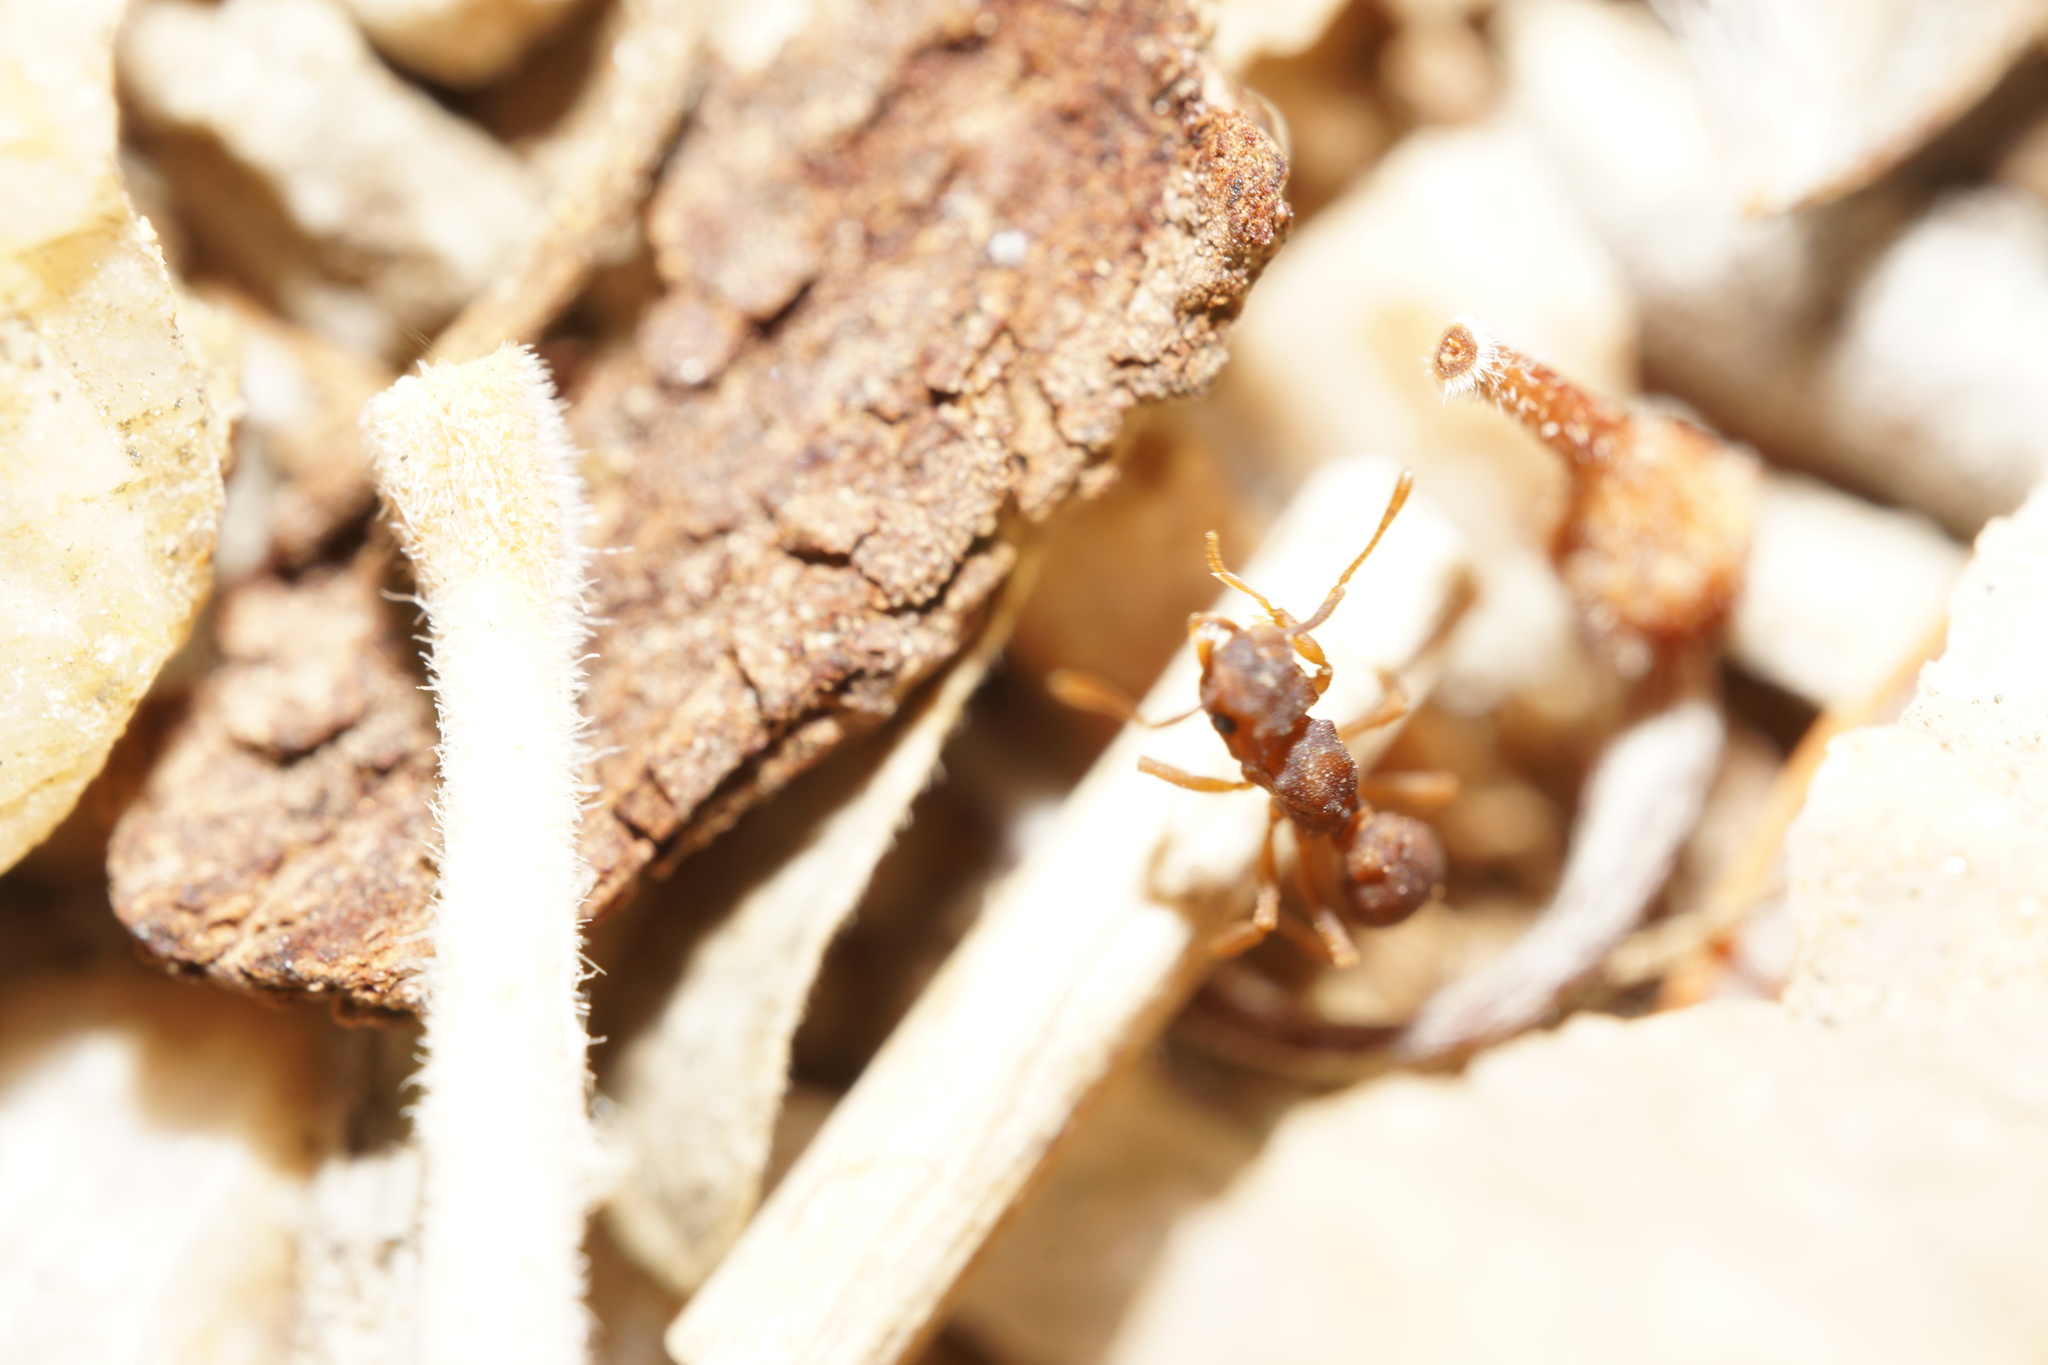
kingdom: Animalia
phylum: Arthropoda
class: Insecta
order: Hymenoptera
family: Formicidae
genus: Cyphomyrmex
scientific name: Cyphomyrmex flavidus
